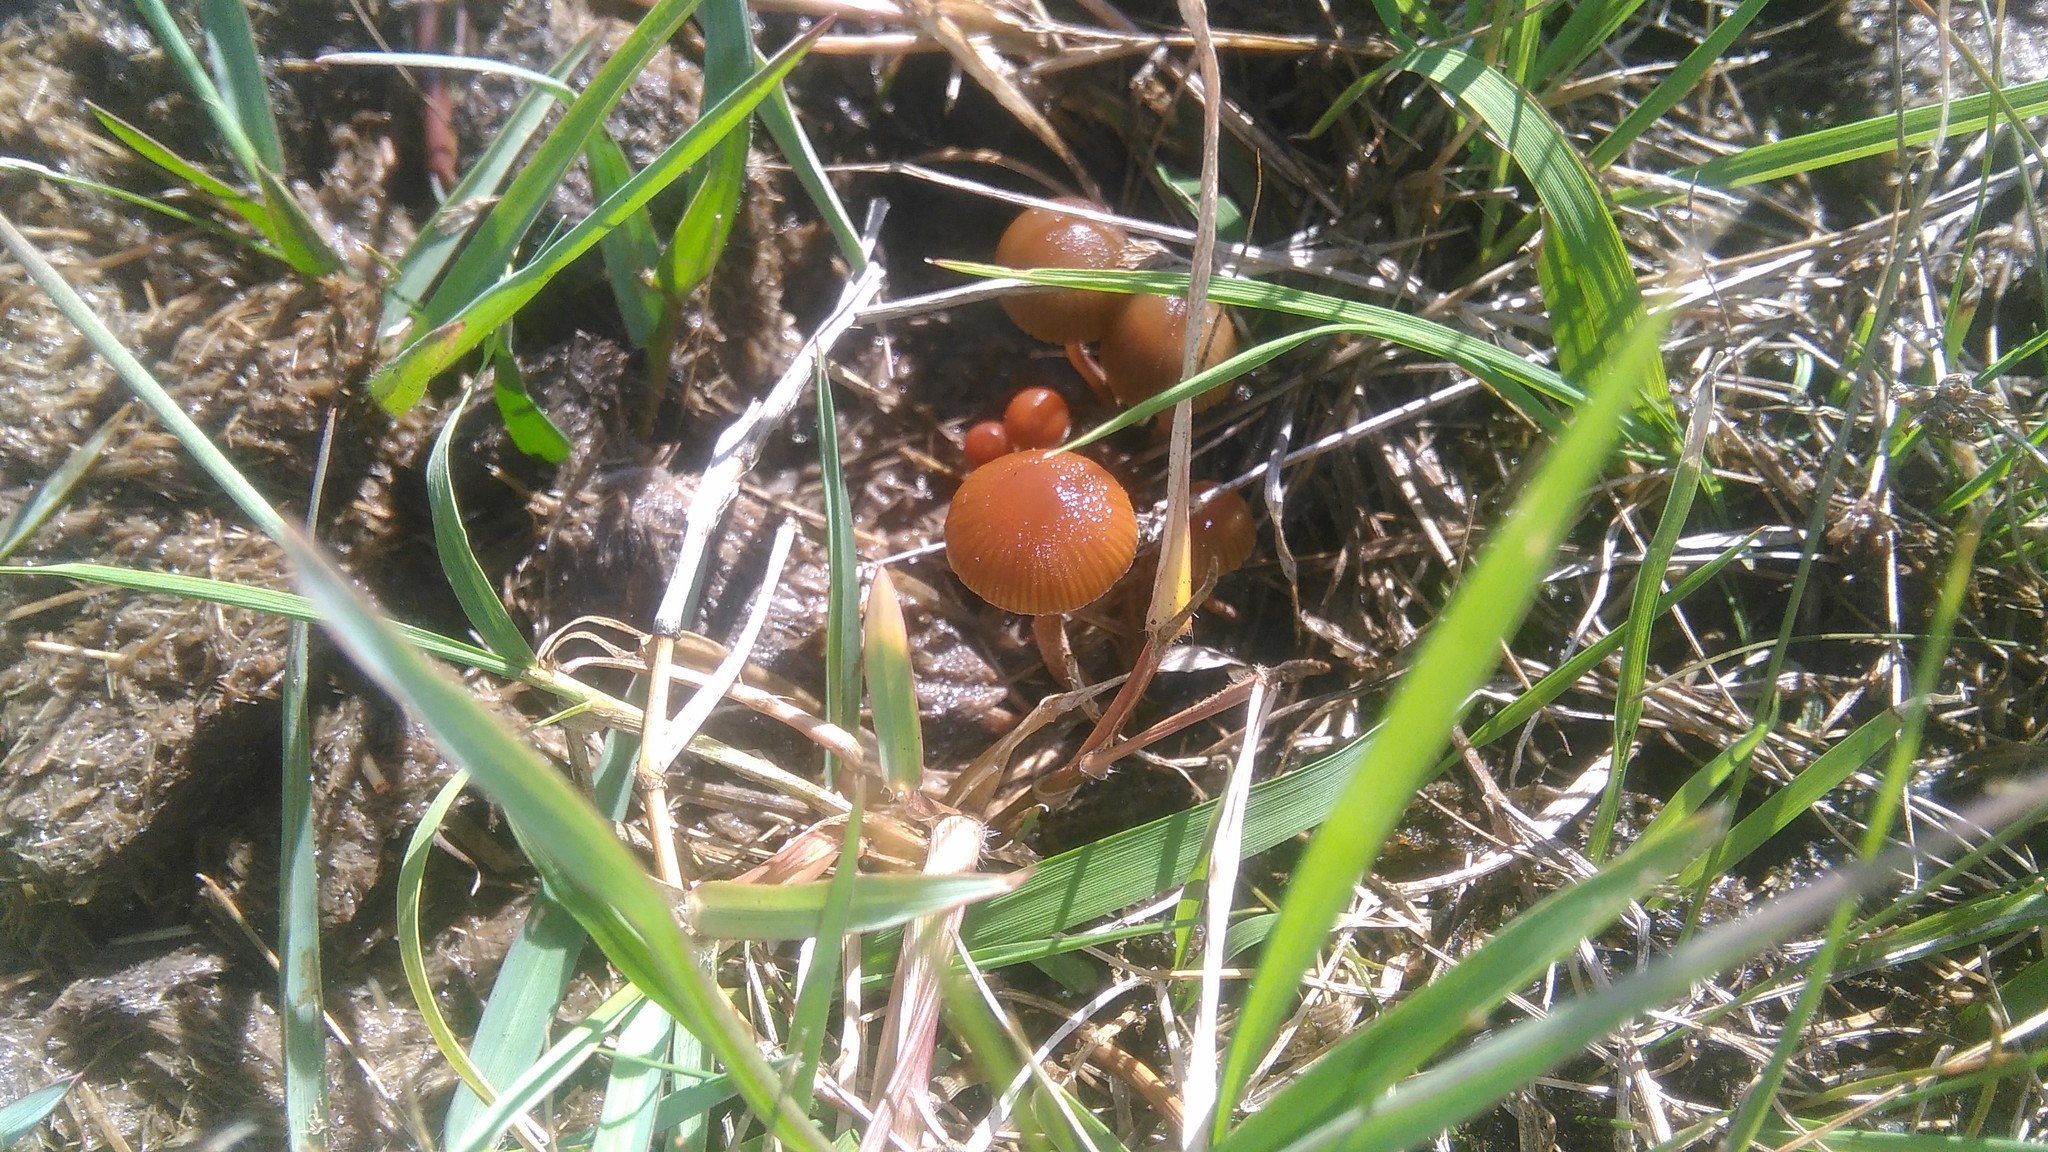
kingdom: Fungi
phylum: Basidiomycota
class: Agaricomycetes
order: Agaricales
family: Strophariaceae
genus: Deconica
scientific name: Deconica coprophila
